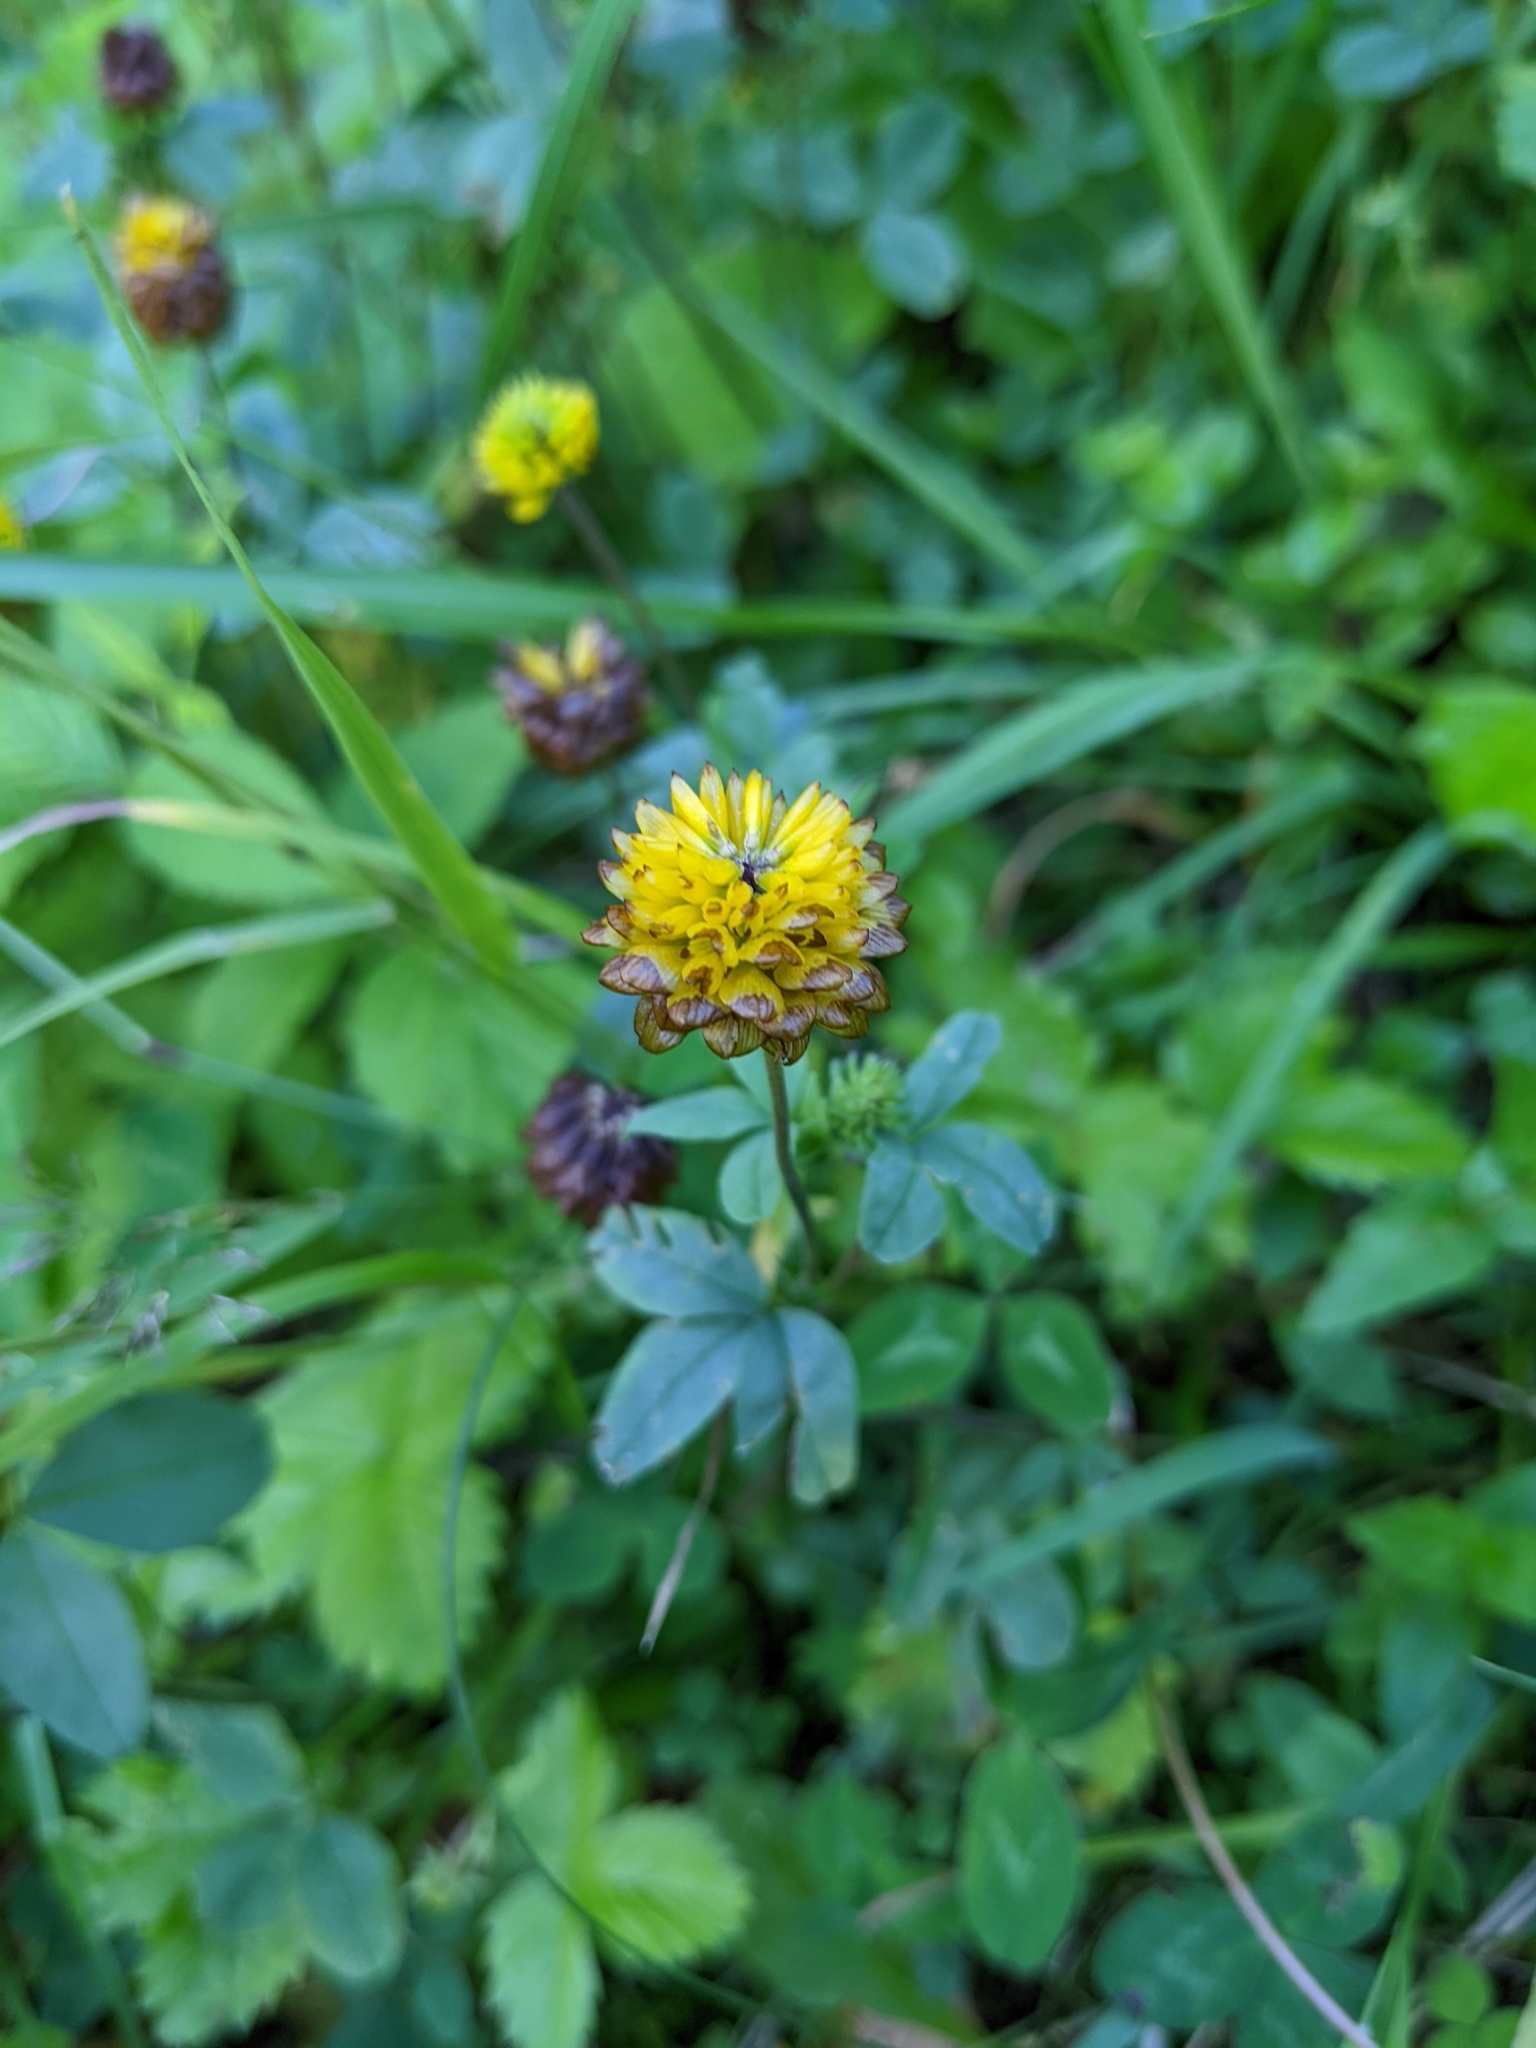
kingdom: Plantae
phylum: Tracheophyta
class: Magnoliopsida
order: Fabales
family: Fabaceae
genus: Trifolium
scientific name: Trifolium badium
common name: Brown clover
